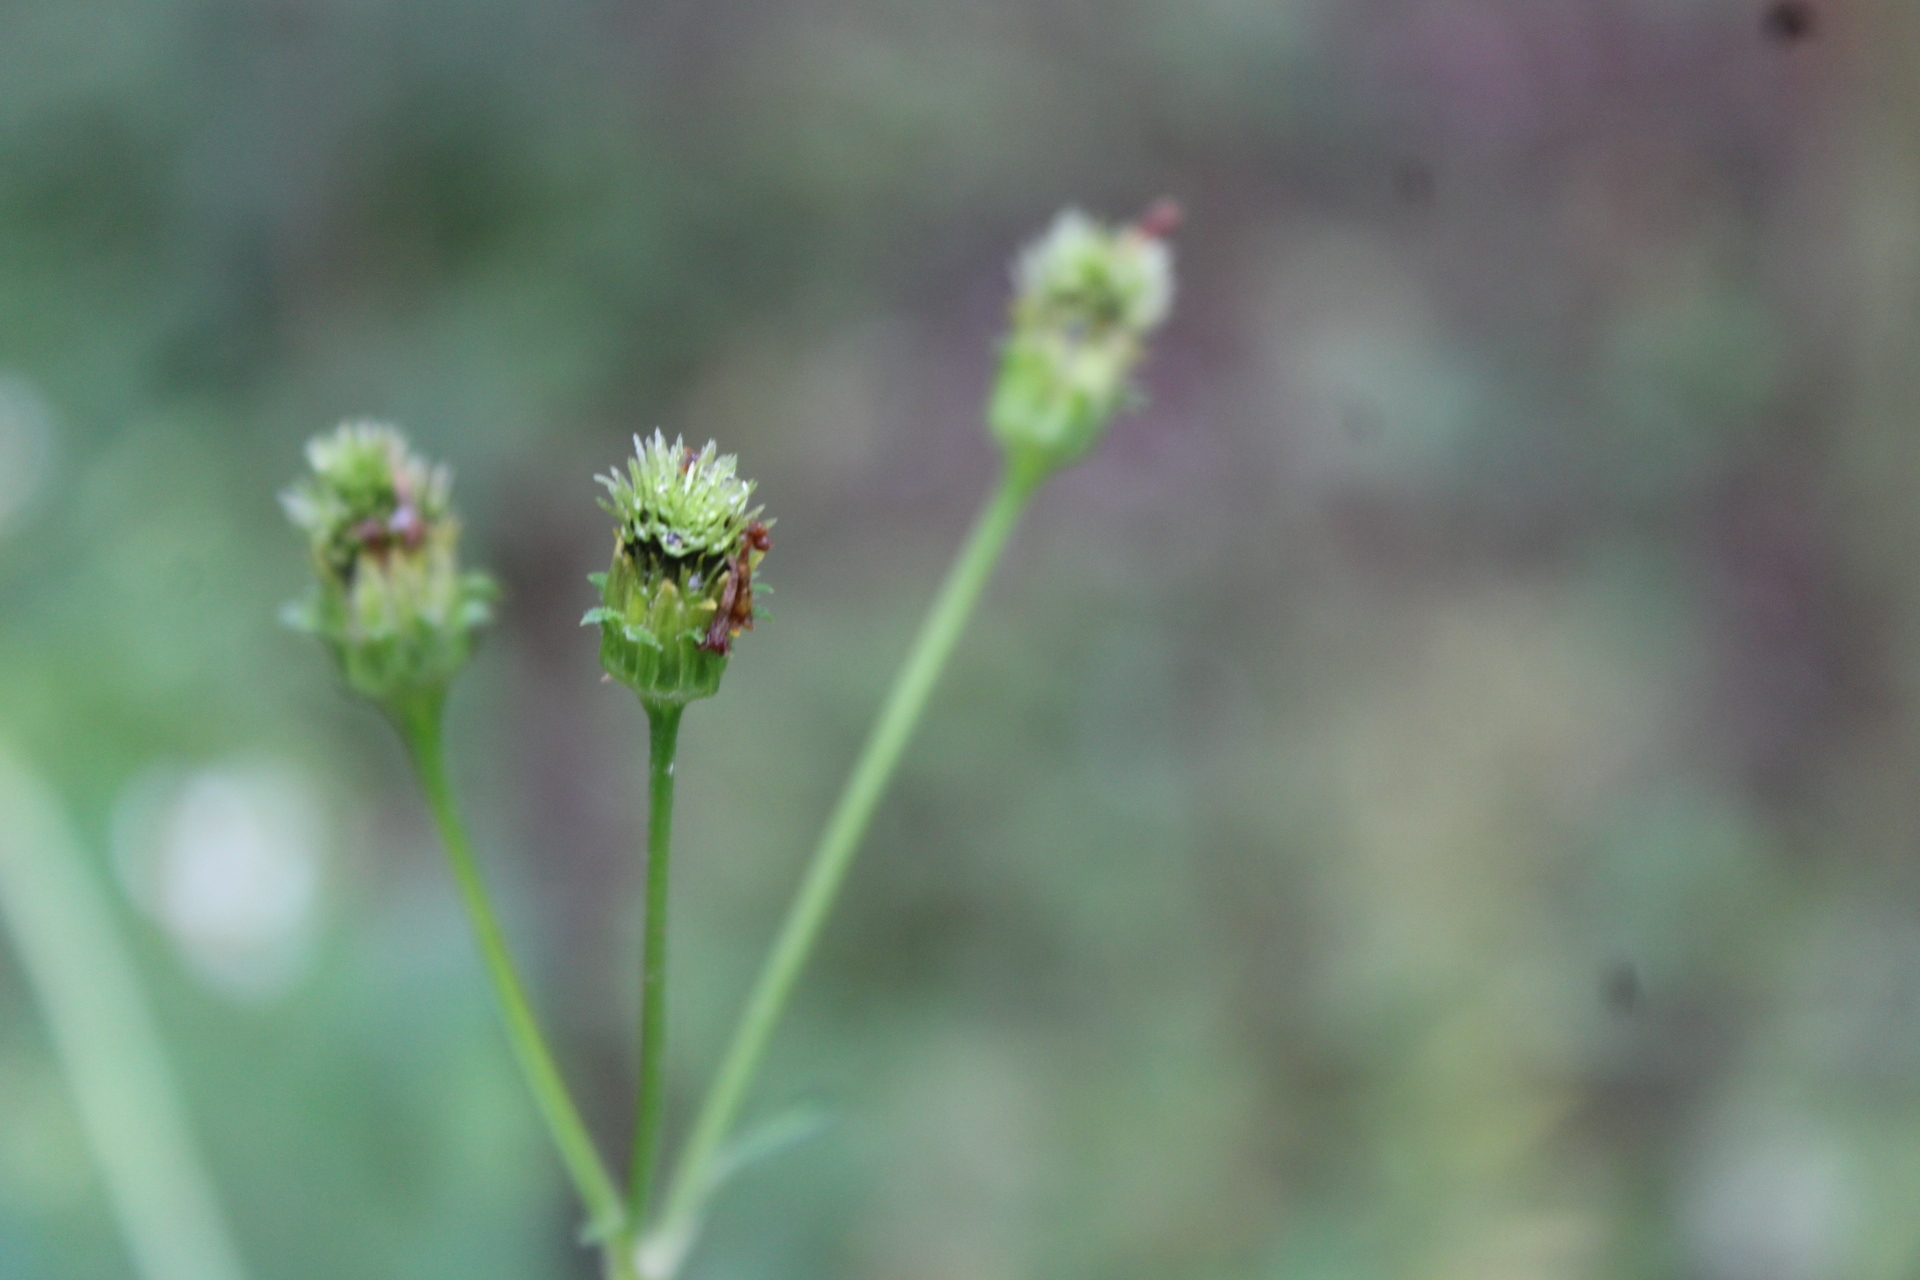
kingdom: Plantae
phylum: Tracheophyta
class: Magnoliopsida
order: Asterales
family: Asteraceae
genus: Bidens
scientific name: Bidens alba
